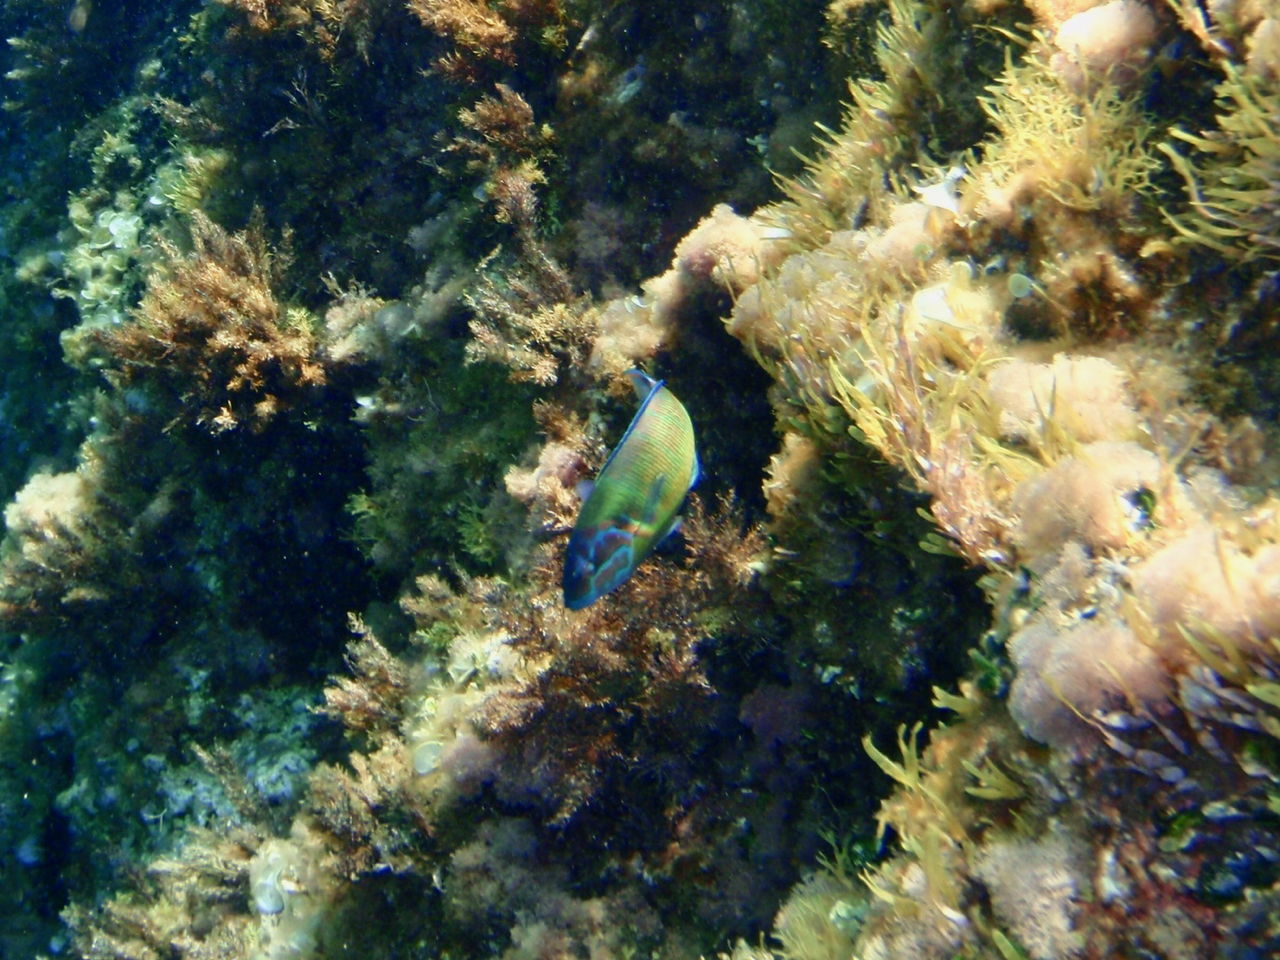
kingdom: Animalia
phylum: Chordata
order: Perciformes
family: Labridae
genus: Thalassoma
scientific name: Thalassoma pavo
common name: Ornate wrasse
